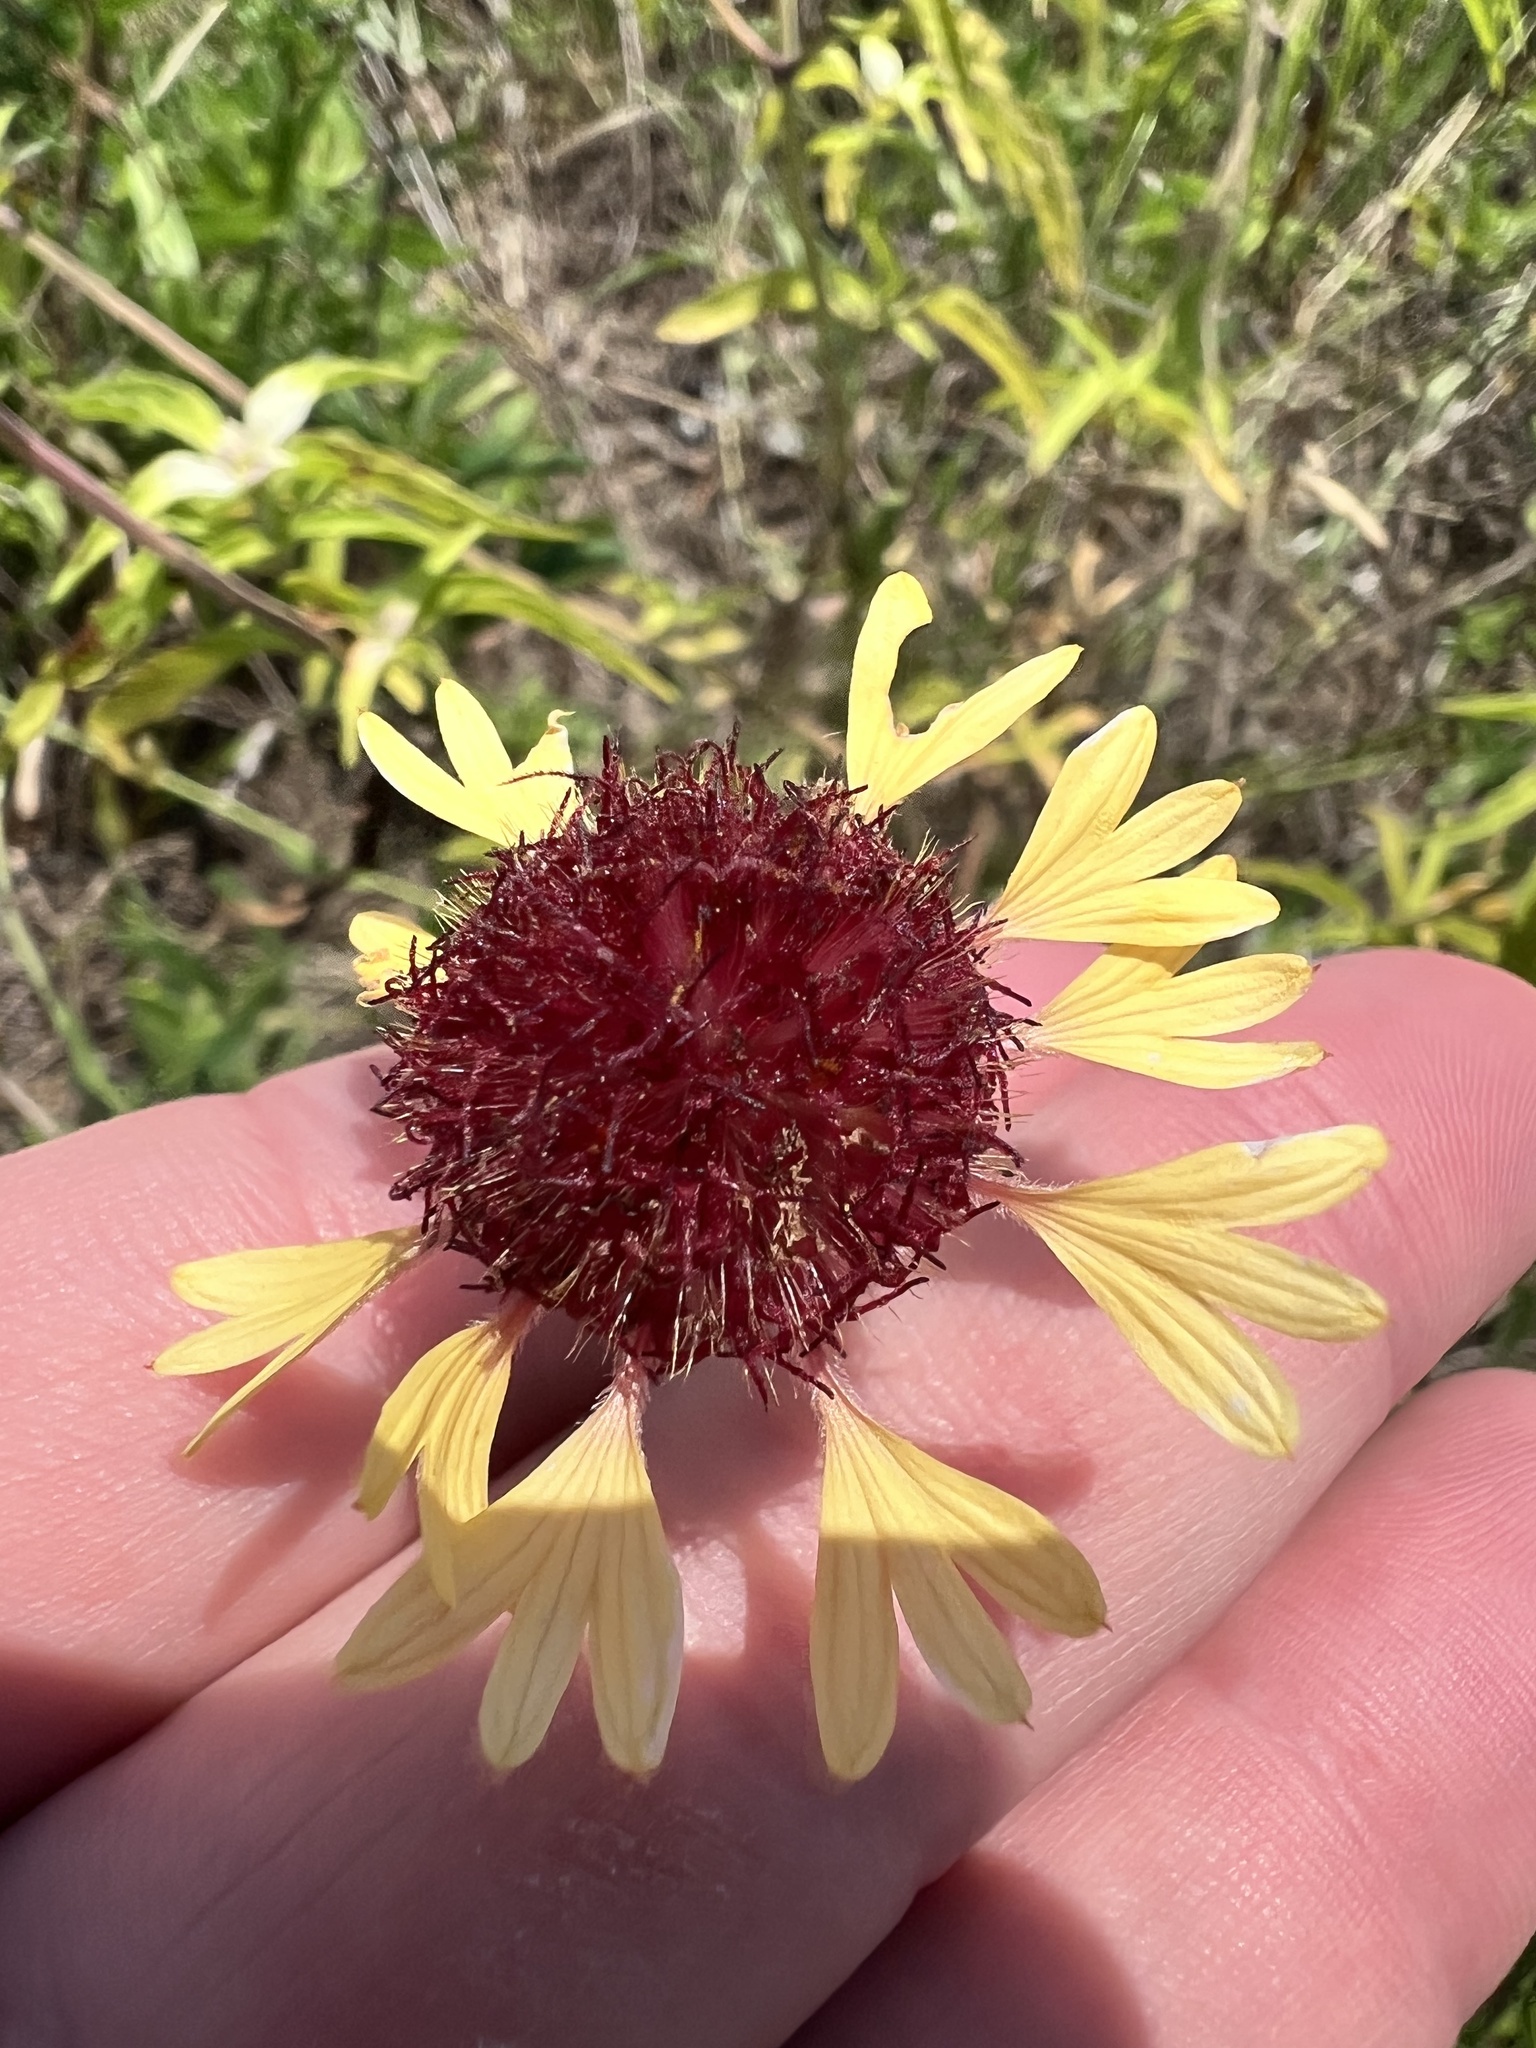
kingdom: Plantae
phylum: Tracheophyta
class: Magnoliopsida
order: Asterales
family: Asteraceae
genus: Gaillardia
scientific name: Gaillardia aestivalis
